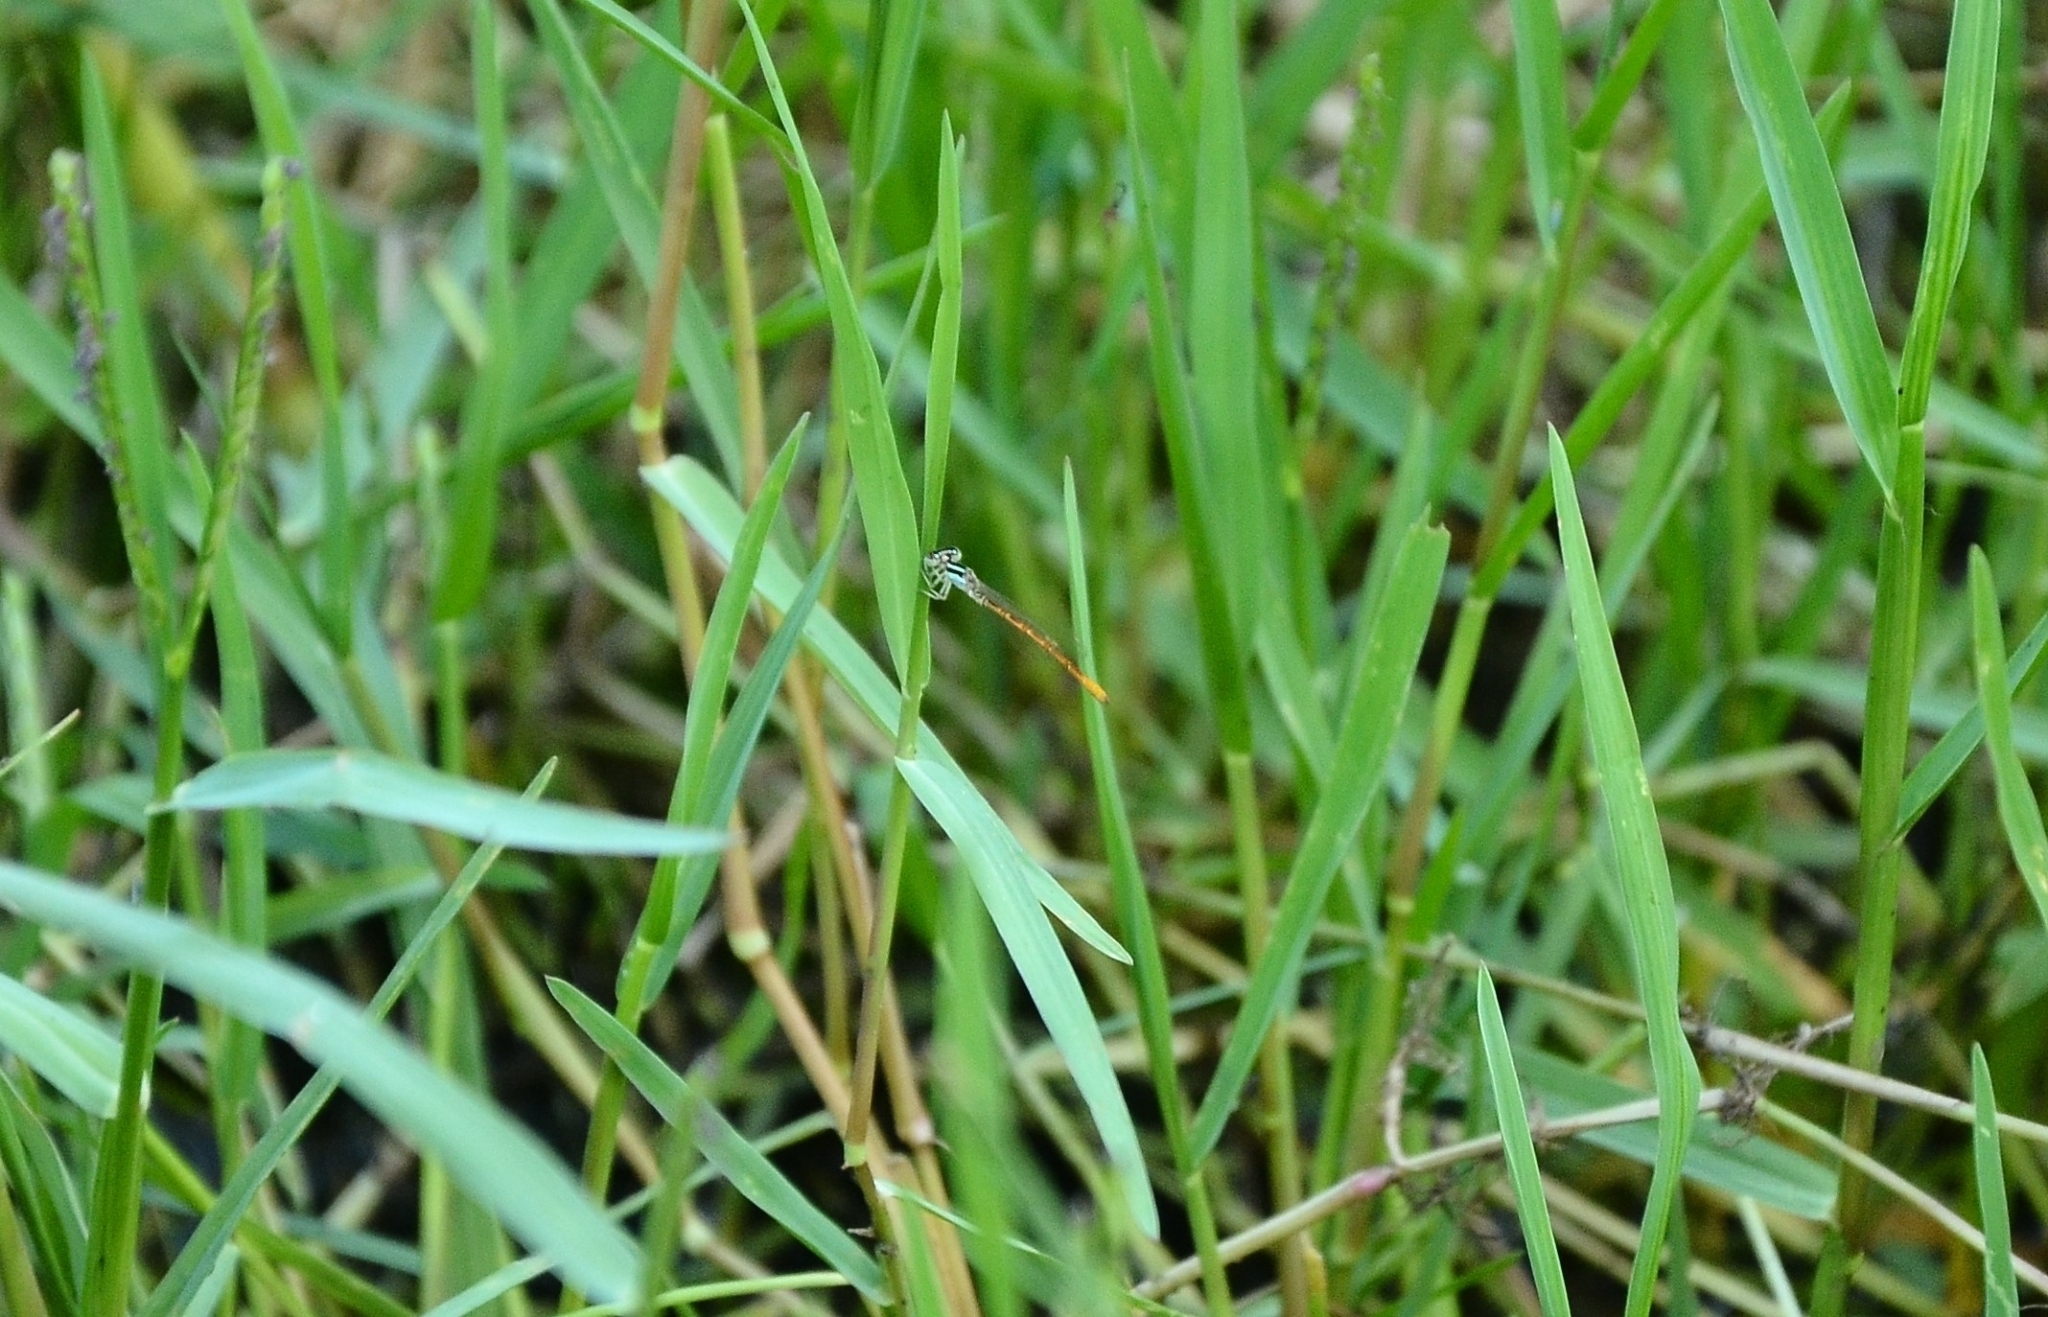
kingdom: Animalia
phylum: Arthropoda
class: Insecta
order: Odonata
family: Coenagrionidae
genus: Agriocnemis
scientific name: Agriocnemis keralensis
